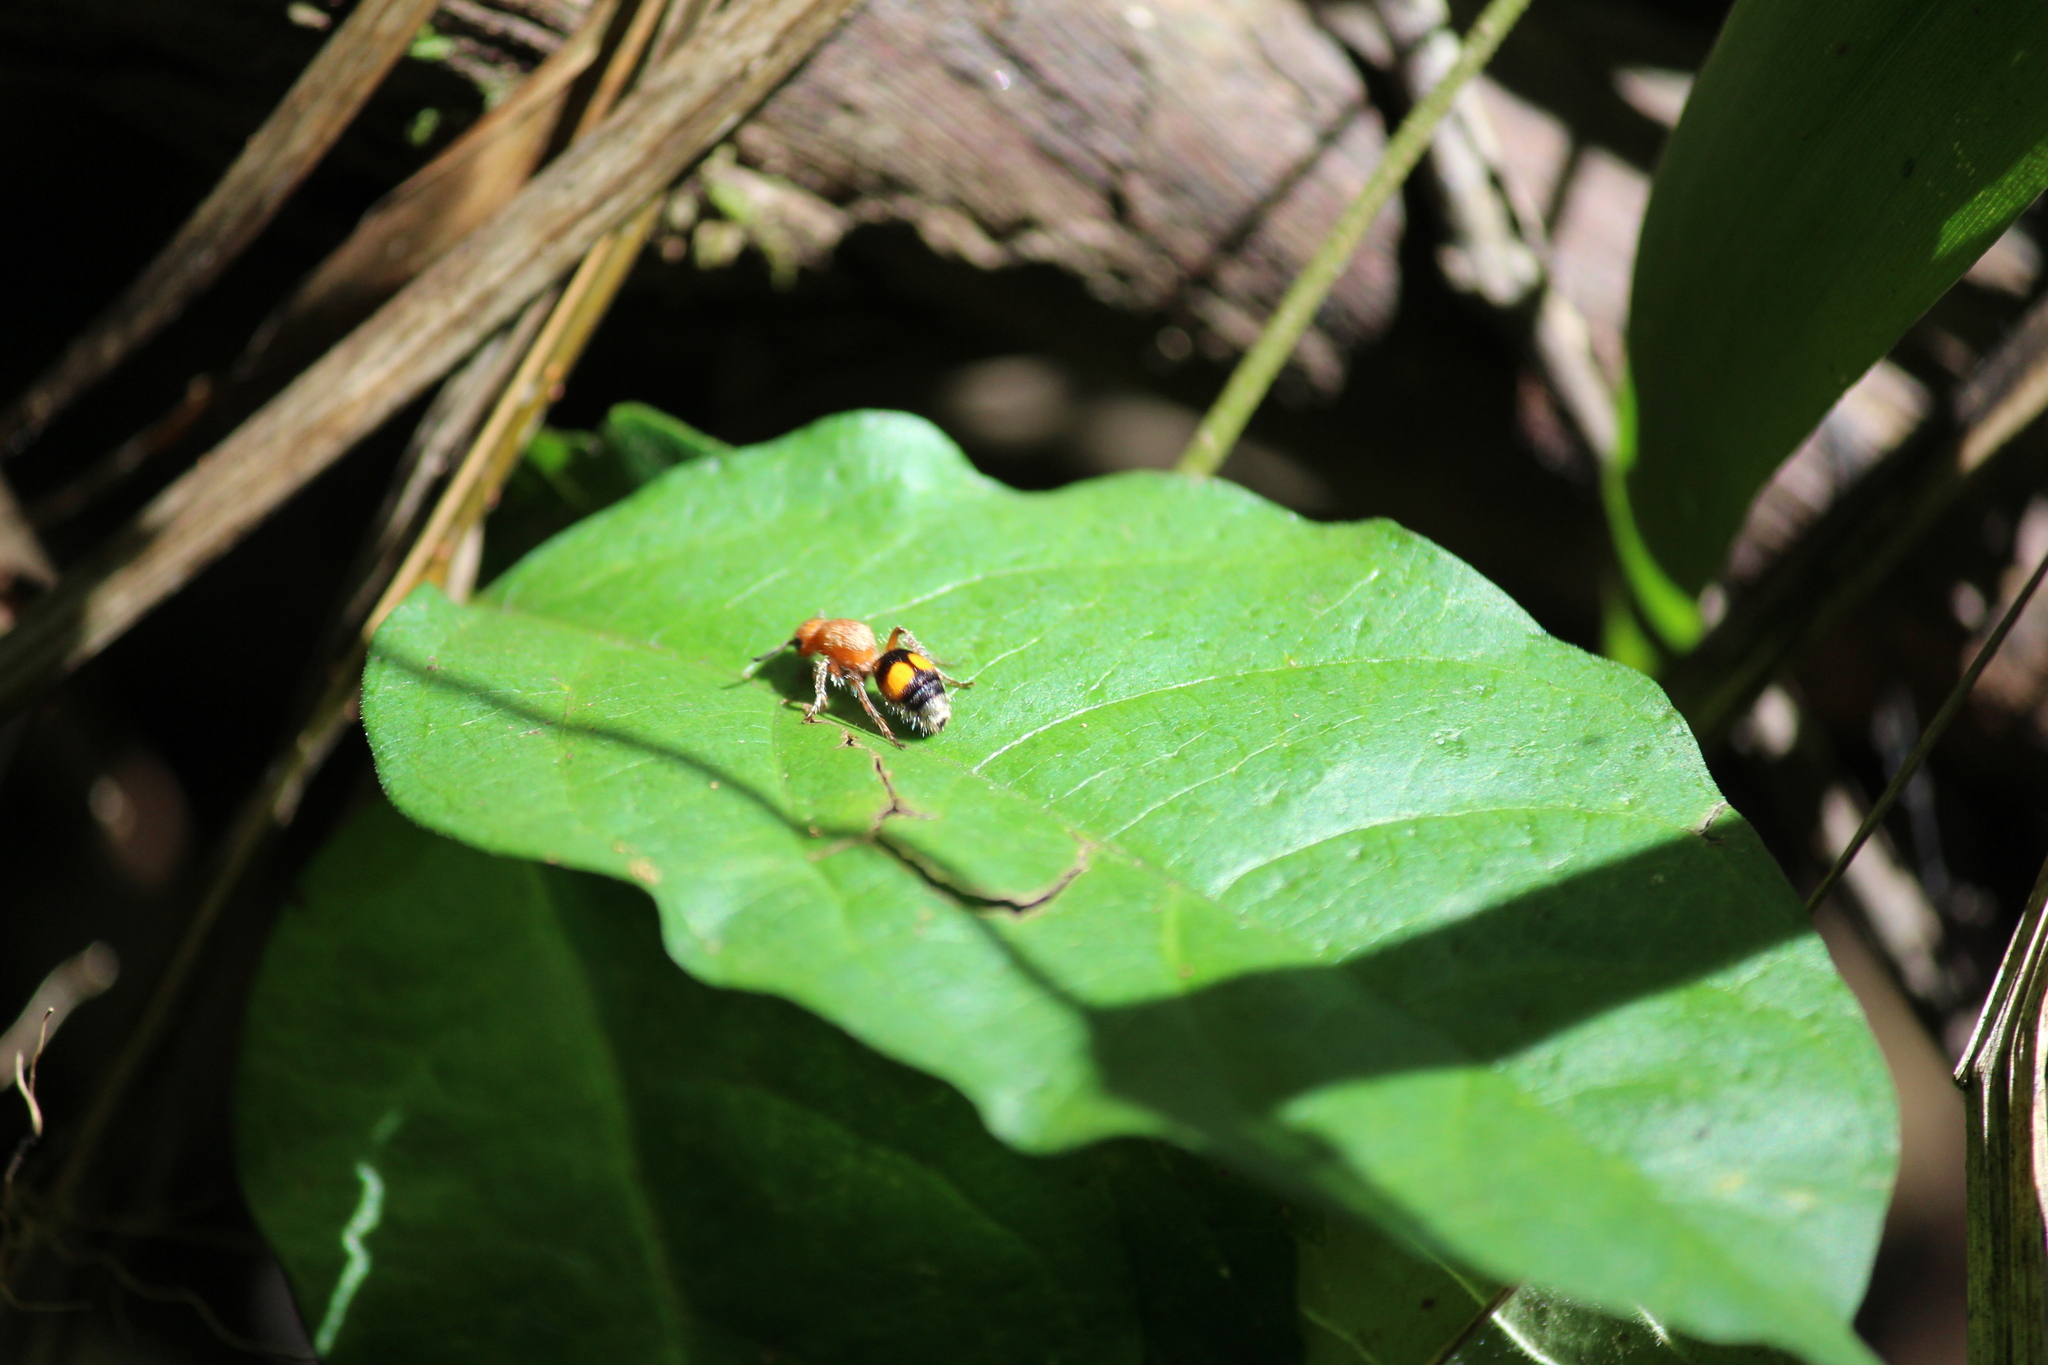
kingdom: Animalia
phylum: Arthropoda
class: Insecta
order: Hymenoptera
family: Mutillidae
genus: Dasymutilla
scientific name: Dasymutilla
